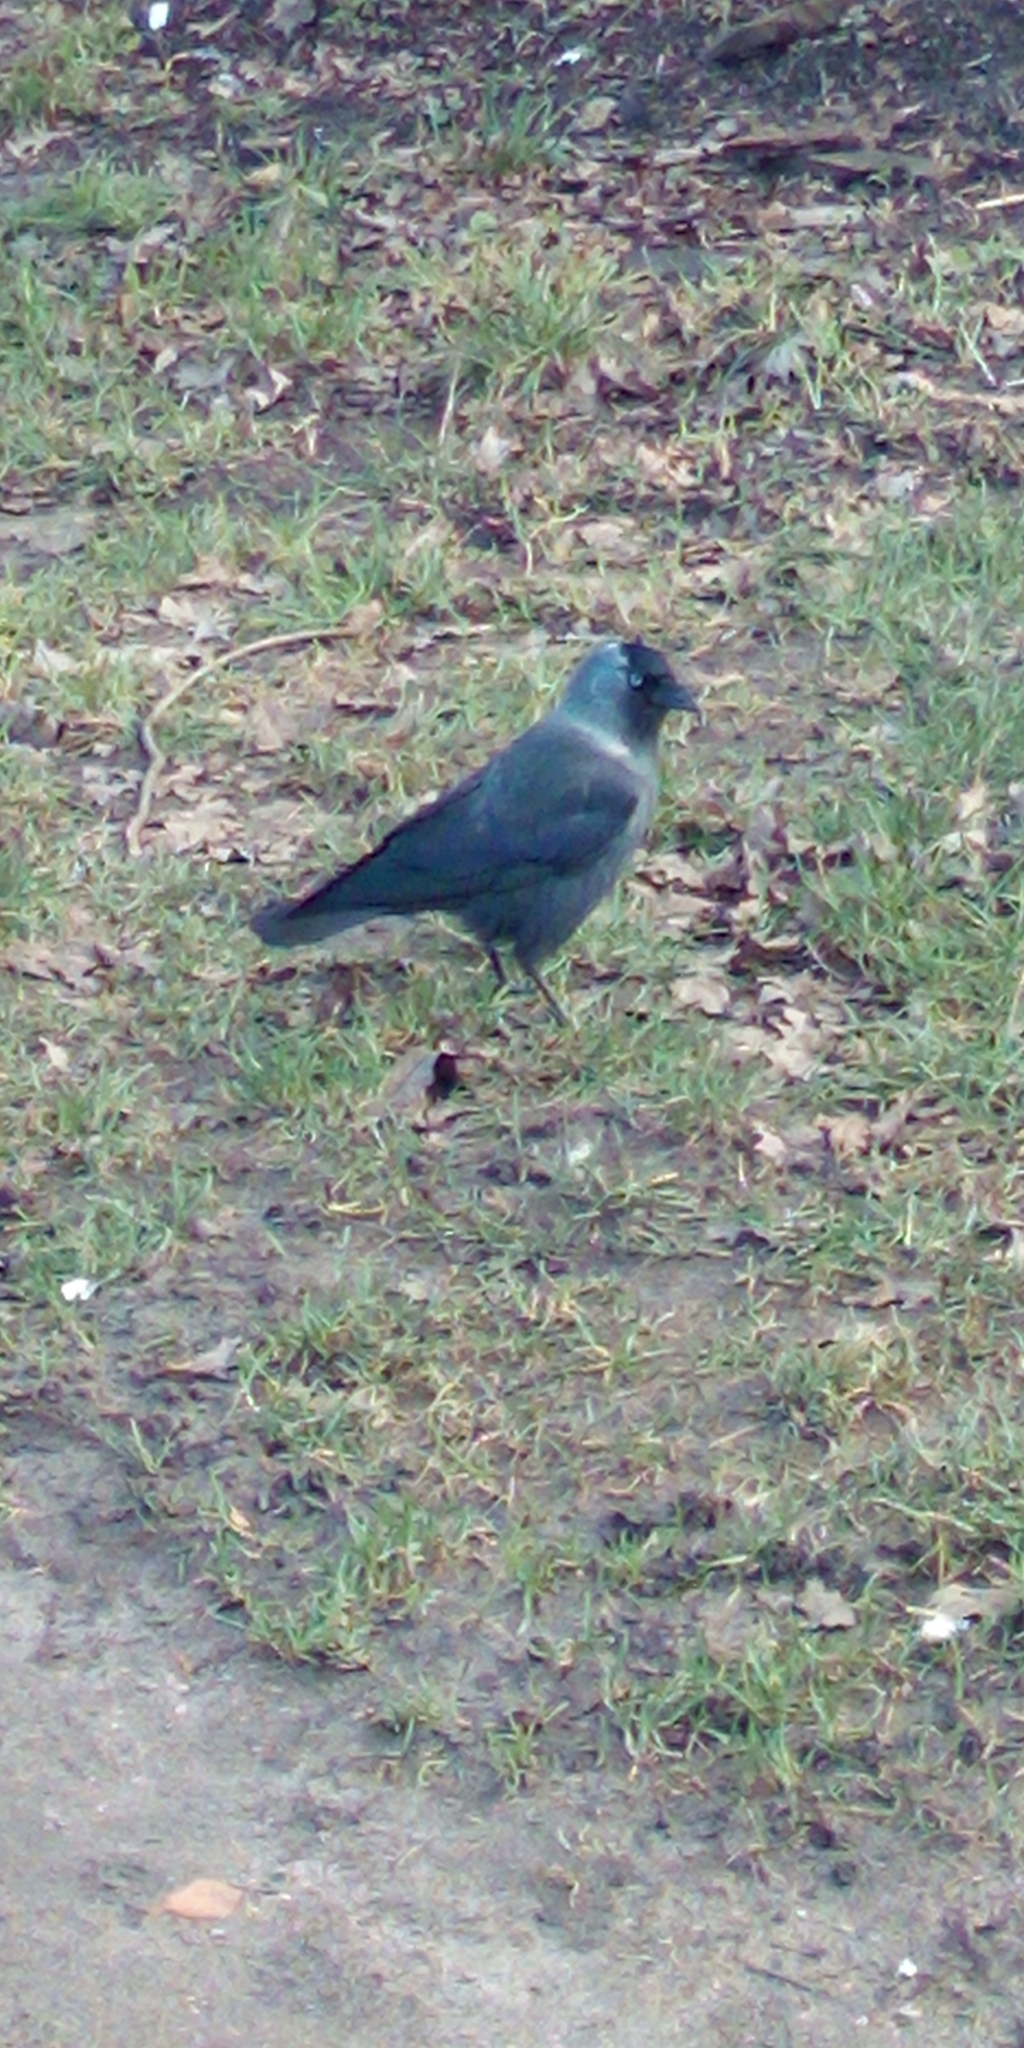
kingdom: Animalia
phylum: Chordata
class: Aves
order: Passeriformes
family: Corvidae
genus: Coloeus
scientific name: Coloeus monedula
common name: Western jackdaw
